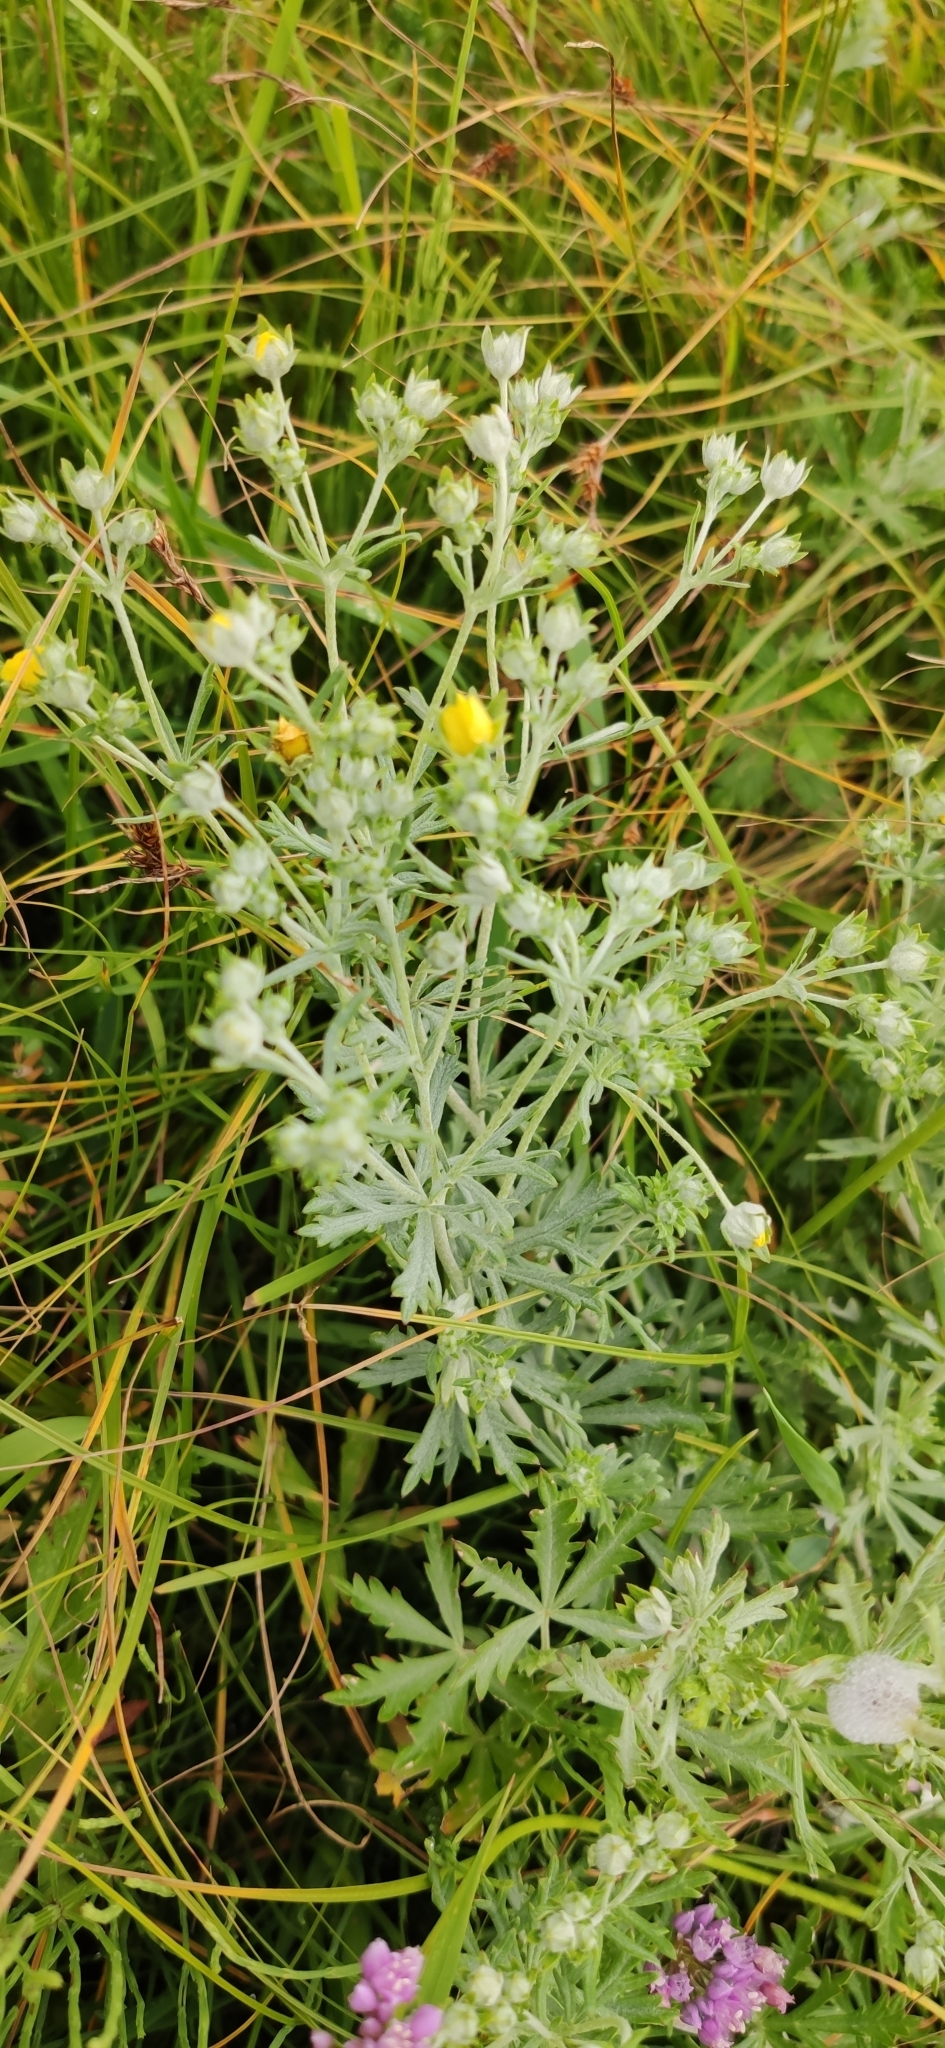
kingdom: Plantae
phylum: Tracheophyta
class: Magnoliopsida
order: Rosales
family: Rosaceae
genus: Potentilla
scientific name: Potentilla argentea
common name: Hoary cinquefoil
